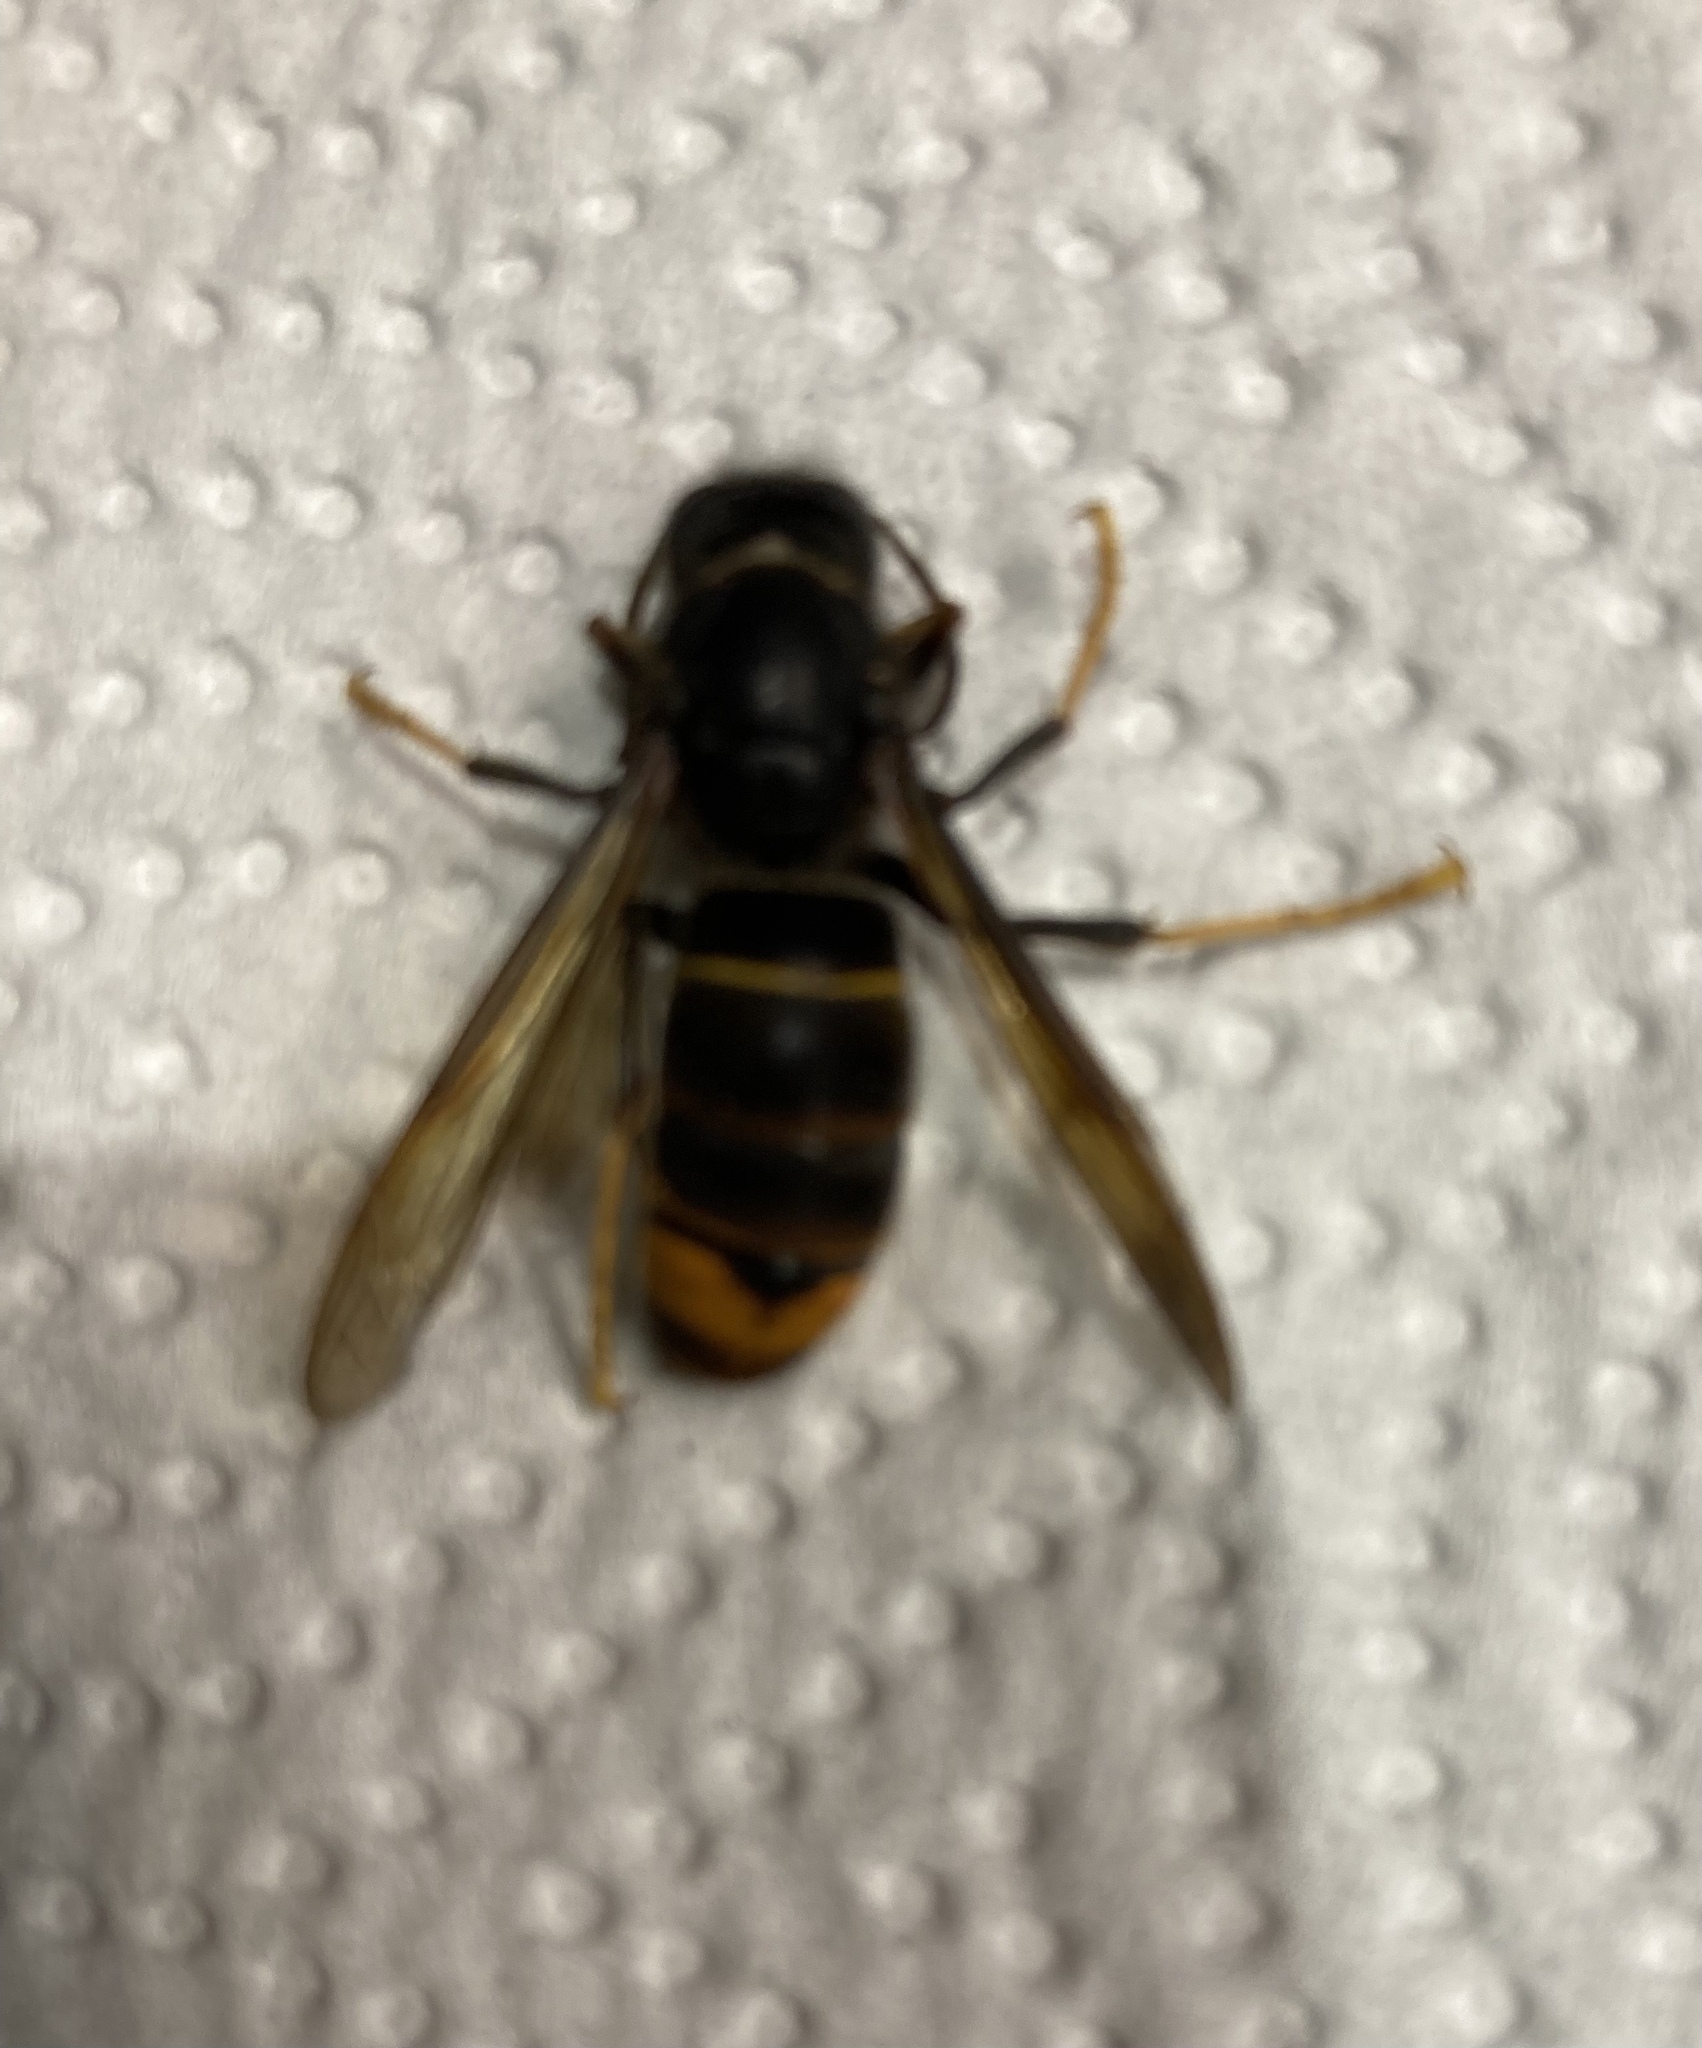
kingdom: Animalia
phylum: Arthropoda
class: Insecta
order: Hymenoptera
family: Vespidae
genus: Vespa
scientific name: Vespa velutina
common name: Asian hornet
